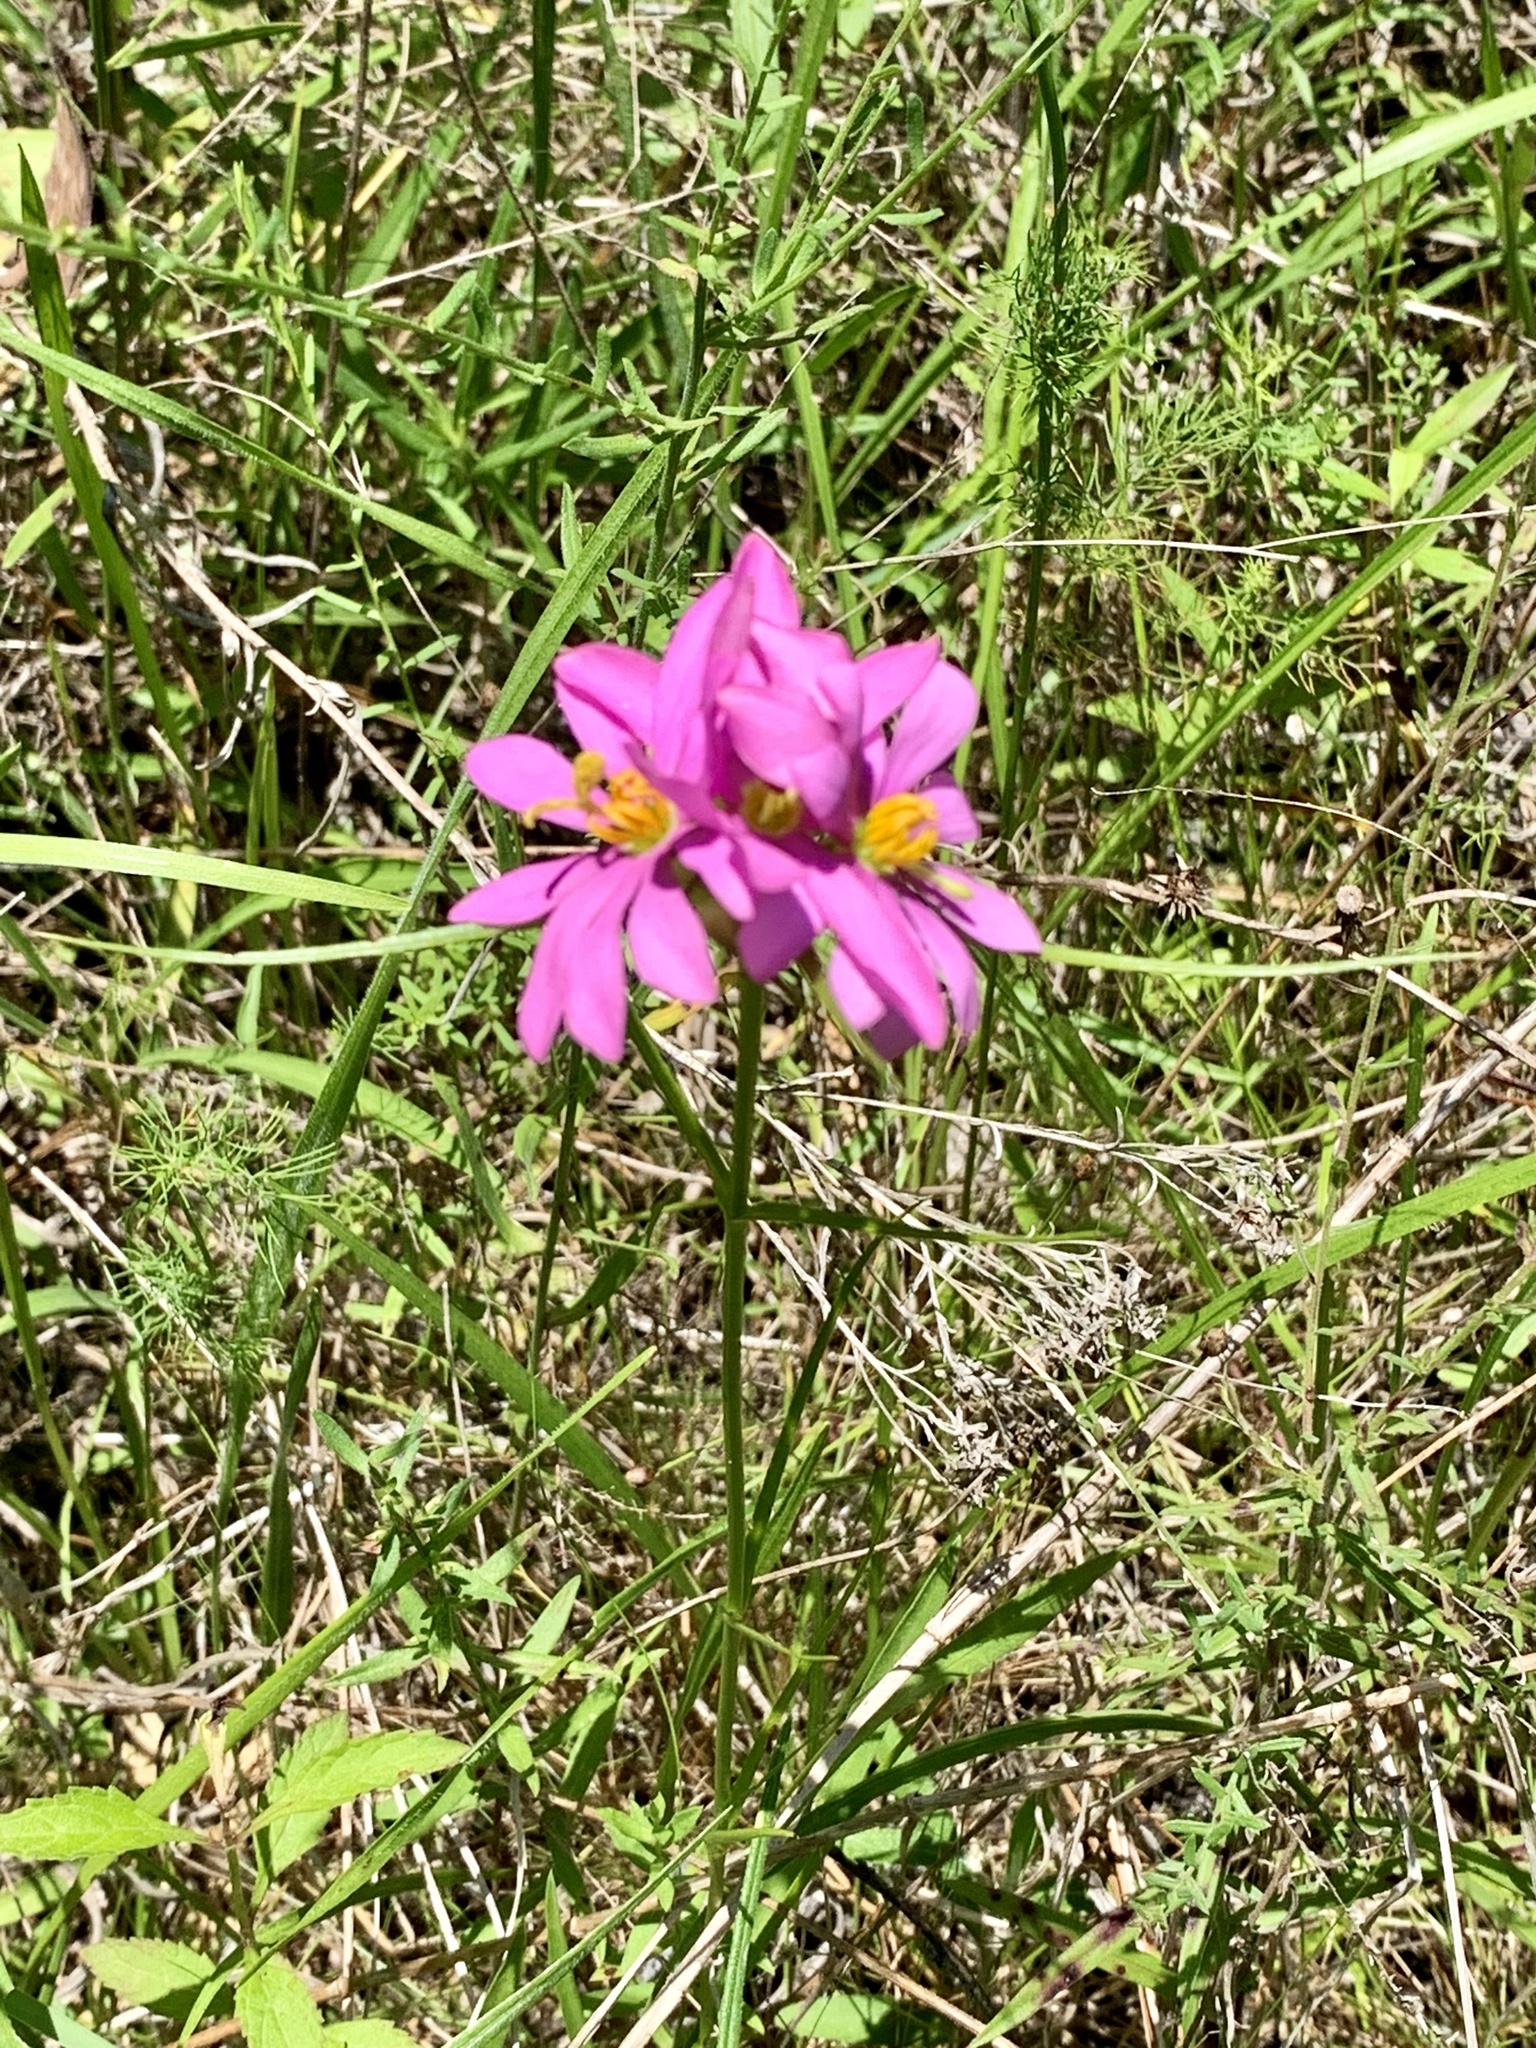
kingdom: Plantae
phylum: Tracheophyta
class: Magnoliopsida
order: Gentianales
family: Gentianaceae
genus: Sabatia
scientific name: Sabatia gentianoides
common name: Pinewoods rose-gentian
